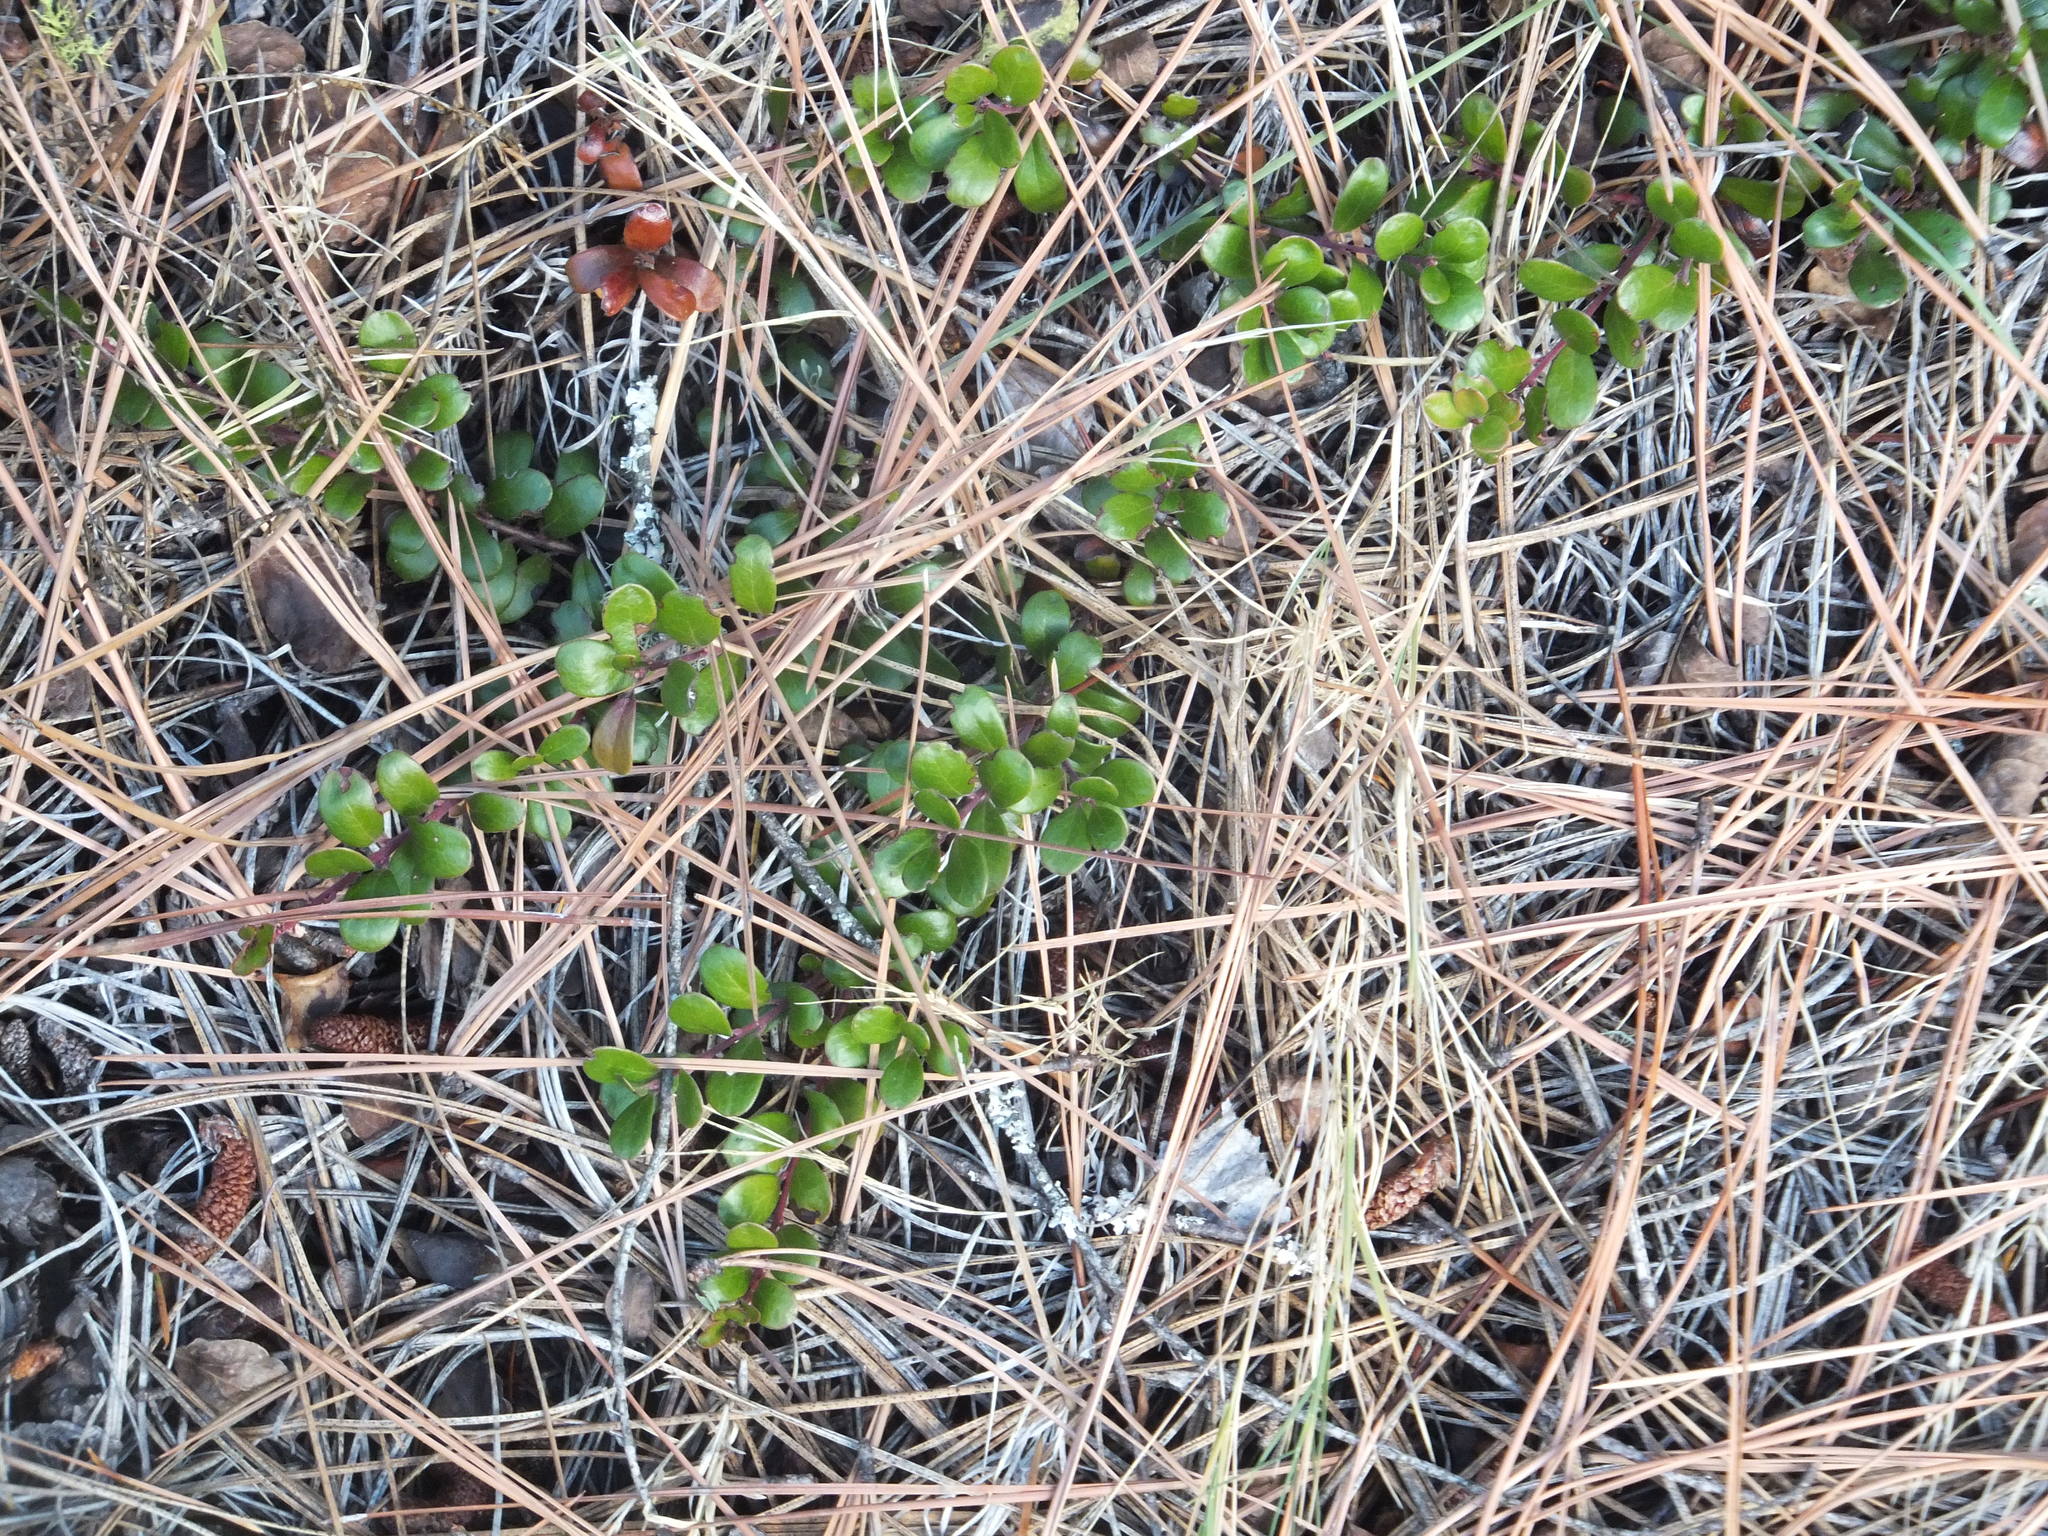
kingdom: Plantae
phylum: Tracheophyta
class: Magnoliopsida
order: Ericales
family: Ericaceae
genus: Arctostaphylos
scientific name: Arctostaphylos uva-ursi
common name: Bearberry
